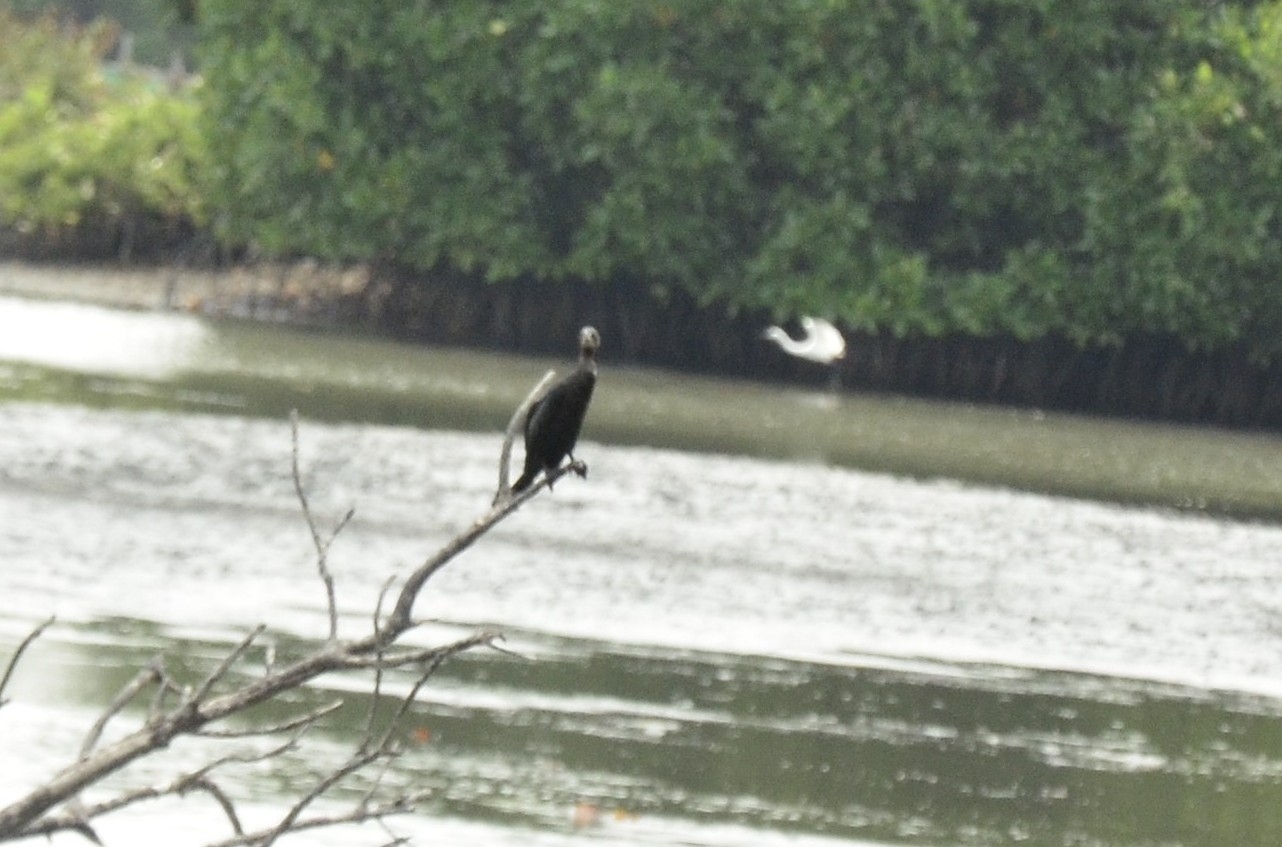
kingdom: Animalia
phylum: Chordata
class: Aves
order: Suliformes
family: Phalacrocoracidae
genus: Microcarbo
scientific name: Microcarbo niger
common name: Little cormorant
